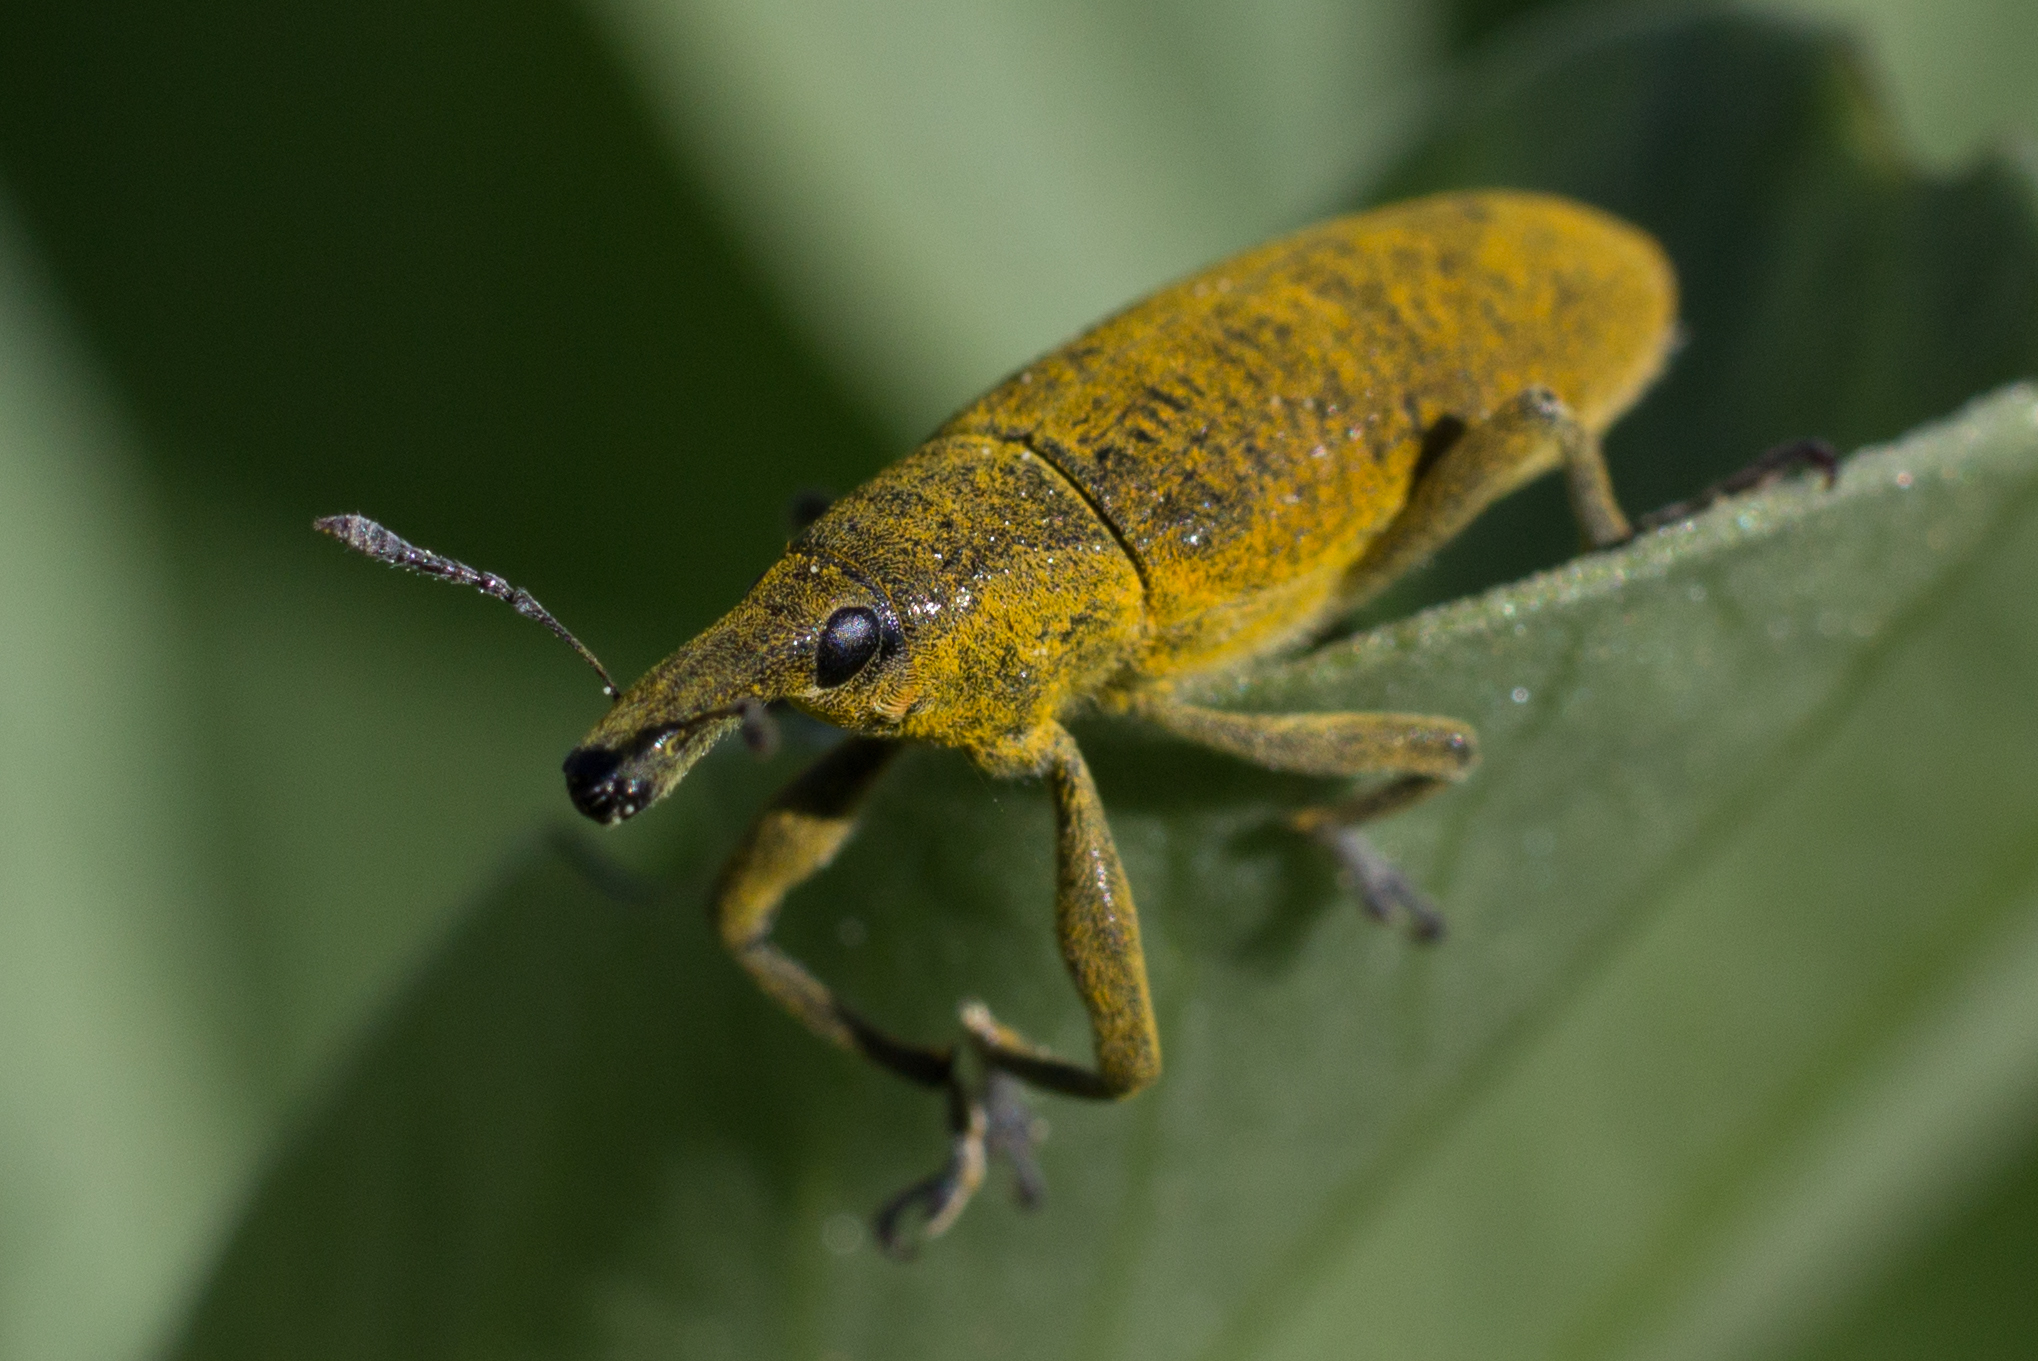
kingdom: Animalia
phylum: Arthropoda
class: Insecta
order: Coleoptera
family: Curculionidae
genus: Lixus
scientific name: Lixus pulverulentus
